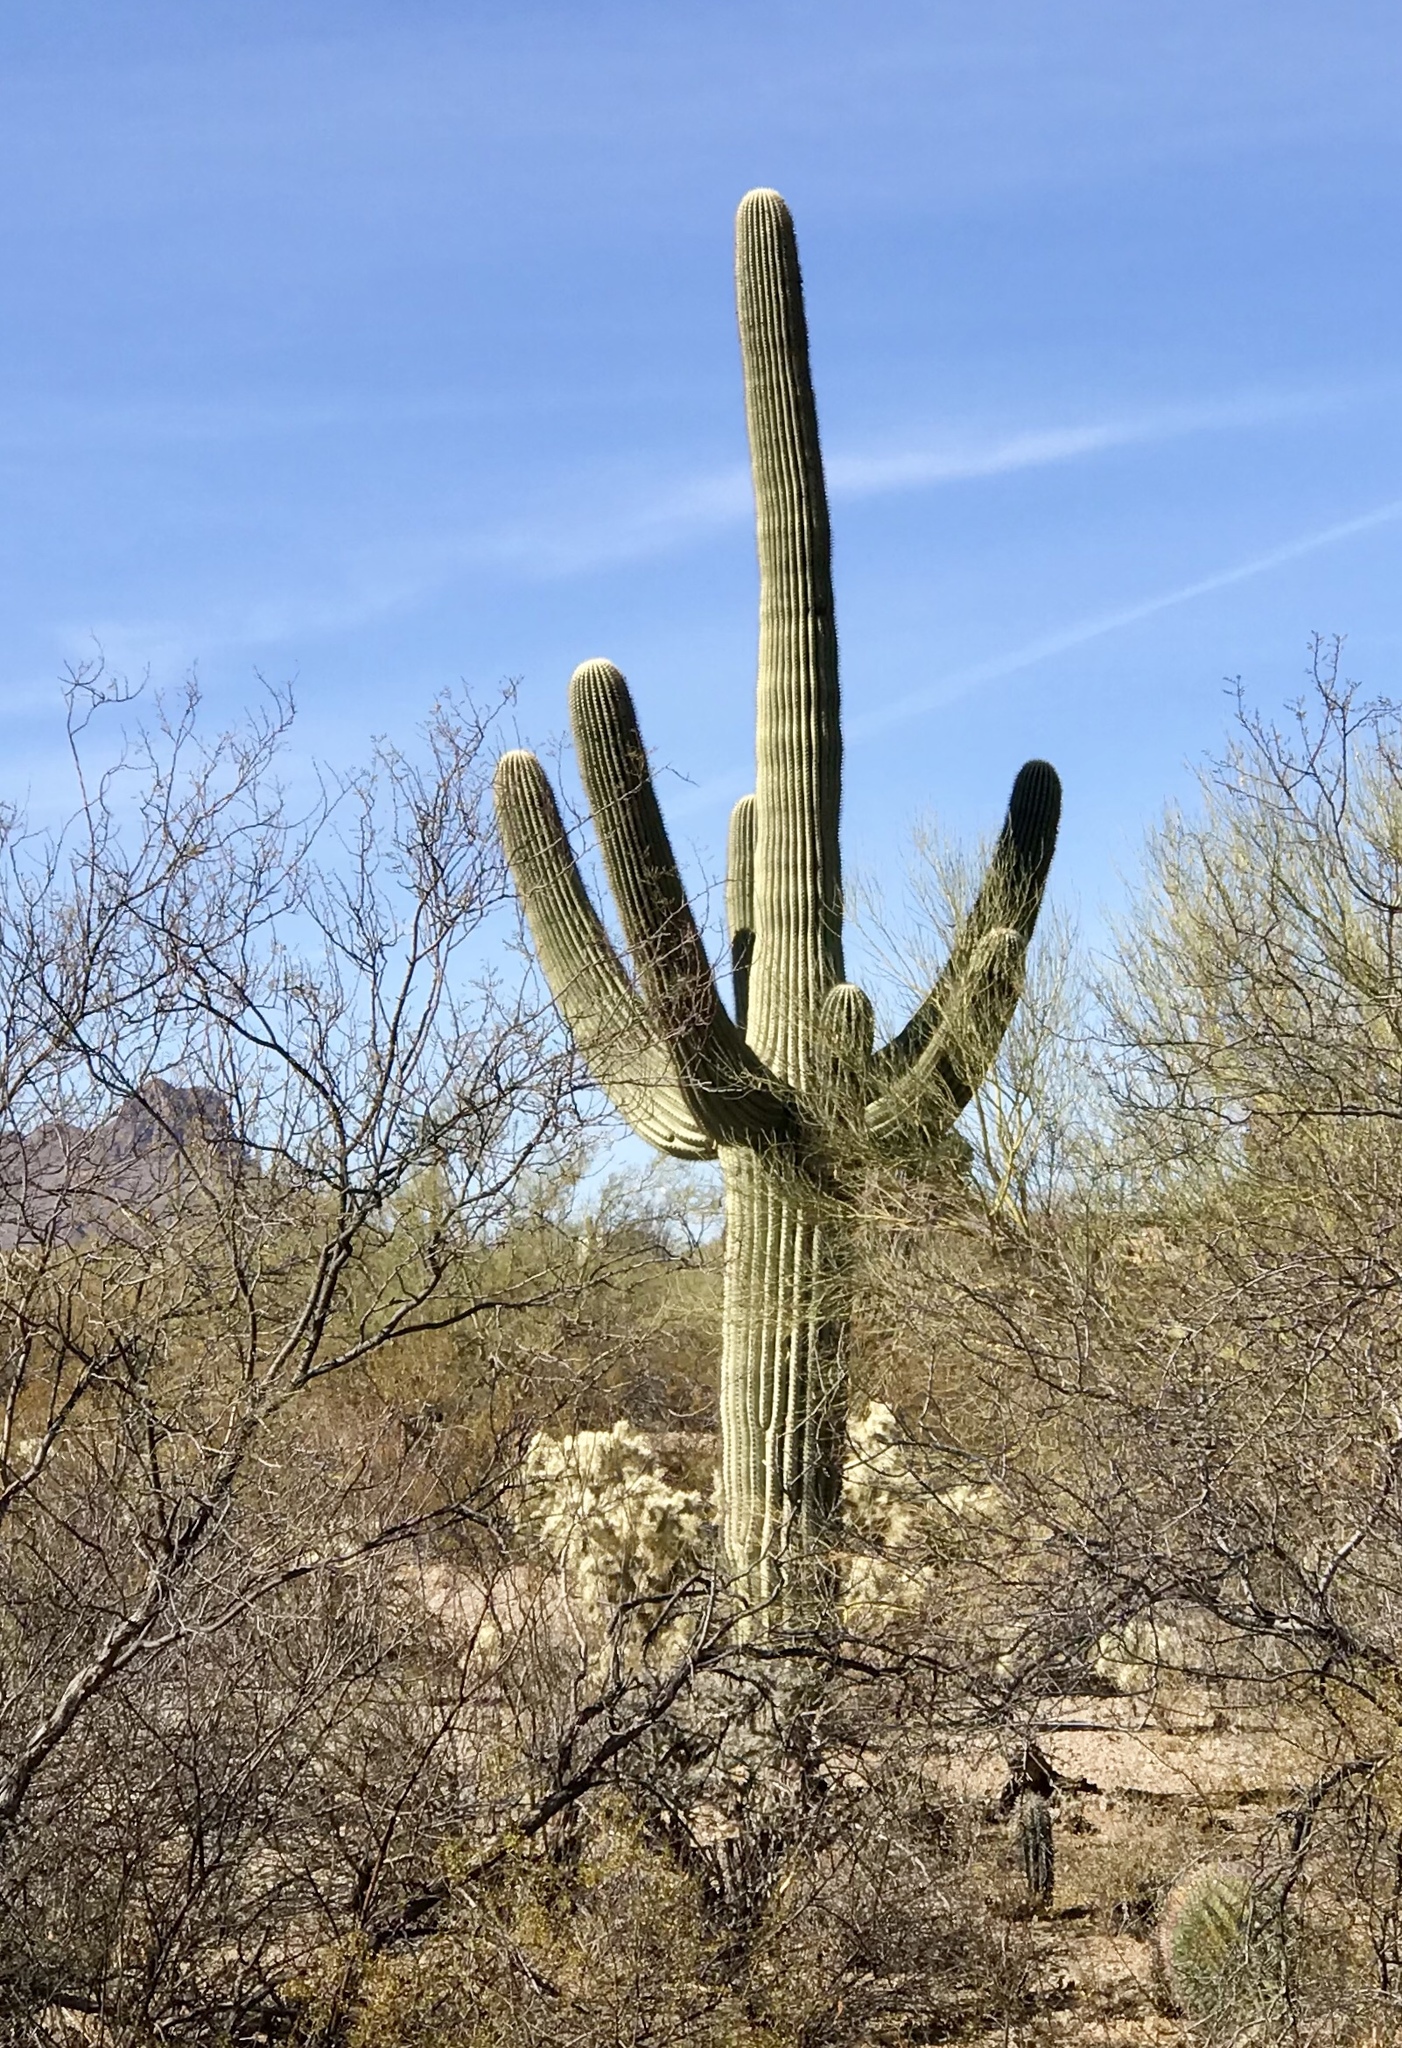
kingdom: Plantae
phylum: Tracheophyta
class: Magnoliopsida
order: Caryophyllales
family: Cactaceae
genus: Carnegiea
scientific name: Carnegiea gigantea
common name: Saguaro
